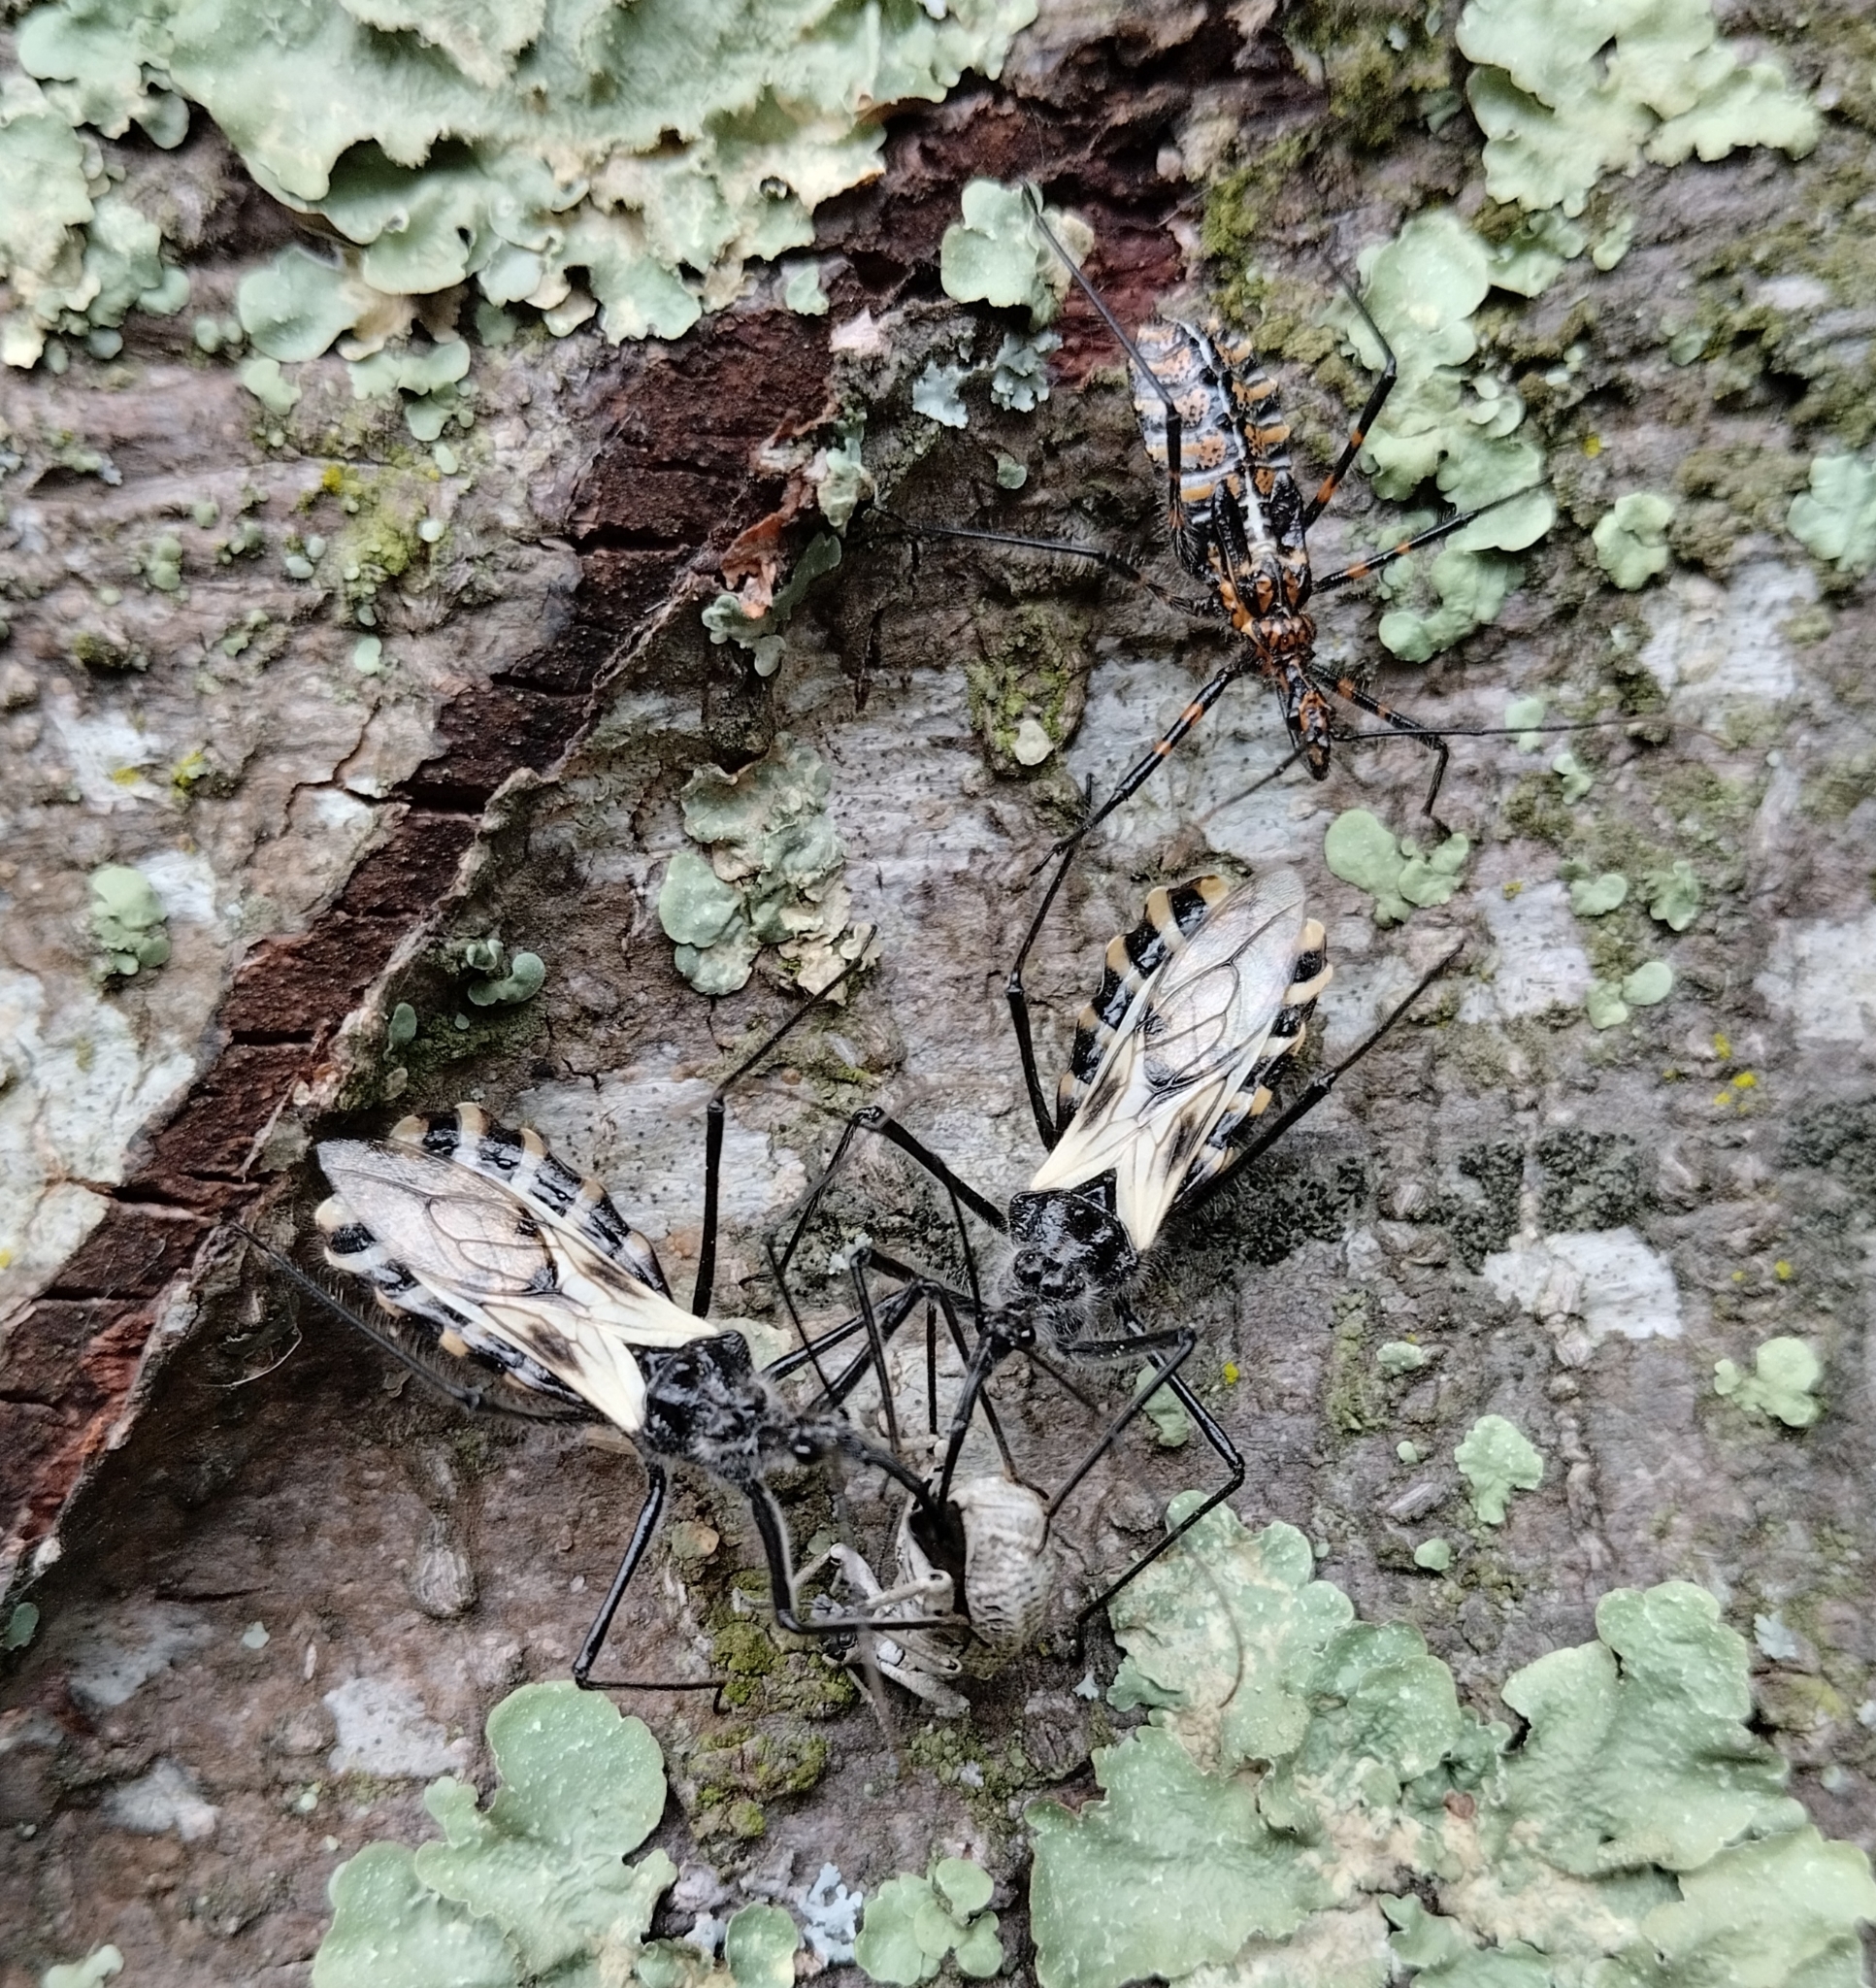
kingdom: Animalia
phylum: Arthropoda
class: Insecta
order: Hemiptera
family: Reduviidae
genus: Ambastus
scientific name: Ambastus villosus
